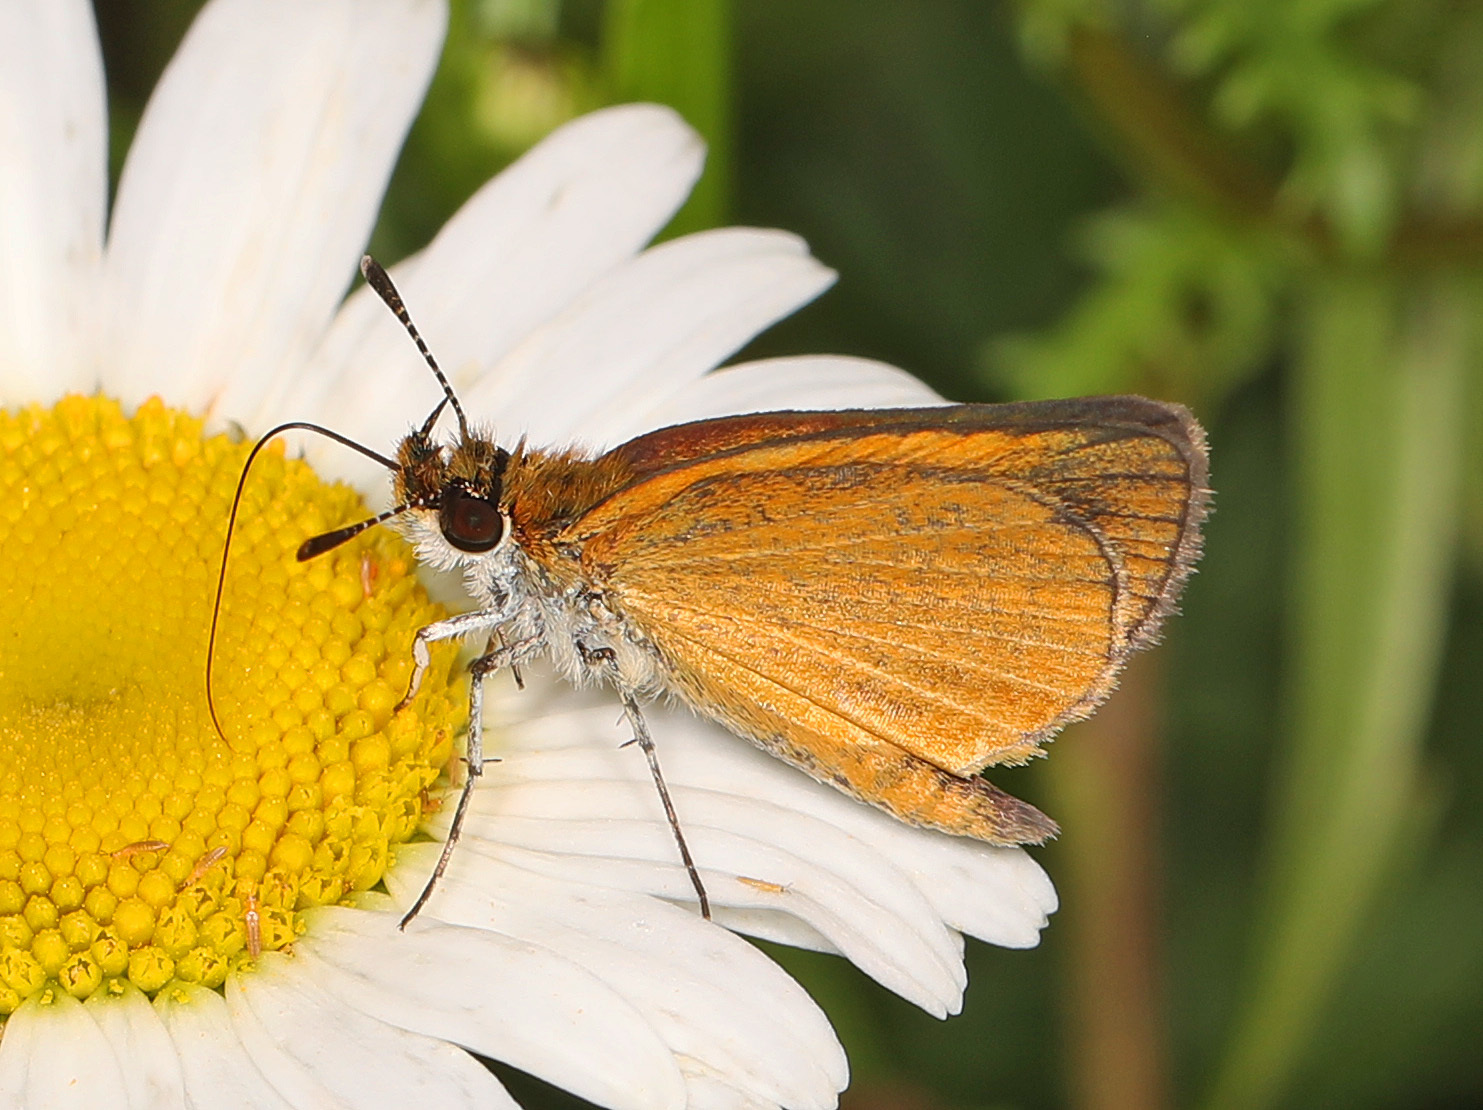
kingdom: Animalia
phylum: Arthropoda
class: Insecta
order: Lepidoptera
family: Hesperiidae
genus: Ancyloxypha
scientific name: Ancyloxypha numitor
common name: Least skipper
